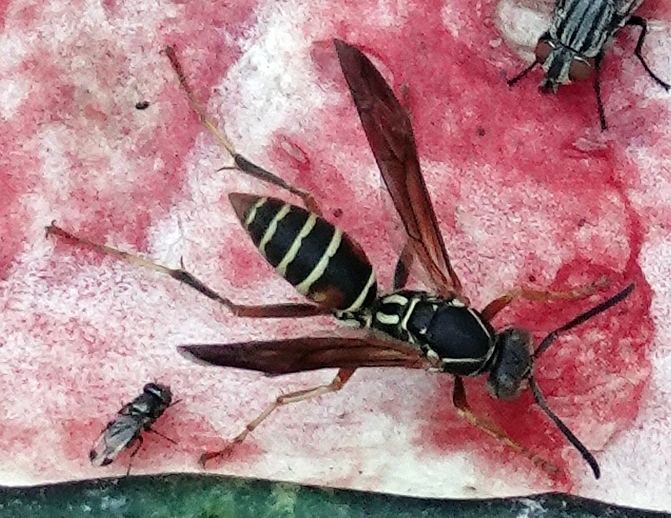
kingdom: Animalia
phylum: Arthropoda
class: Insecta
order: Hymenoptera
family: Eumenidae
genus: Polistes
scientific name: Polistes fuscatus
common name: Dark paper wasp
